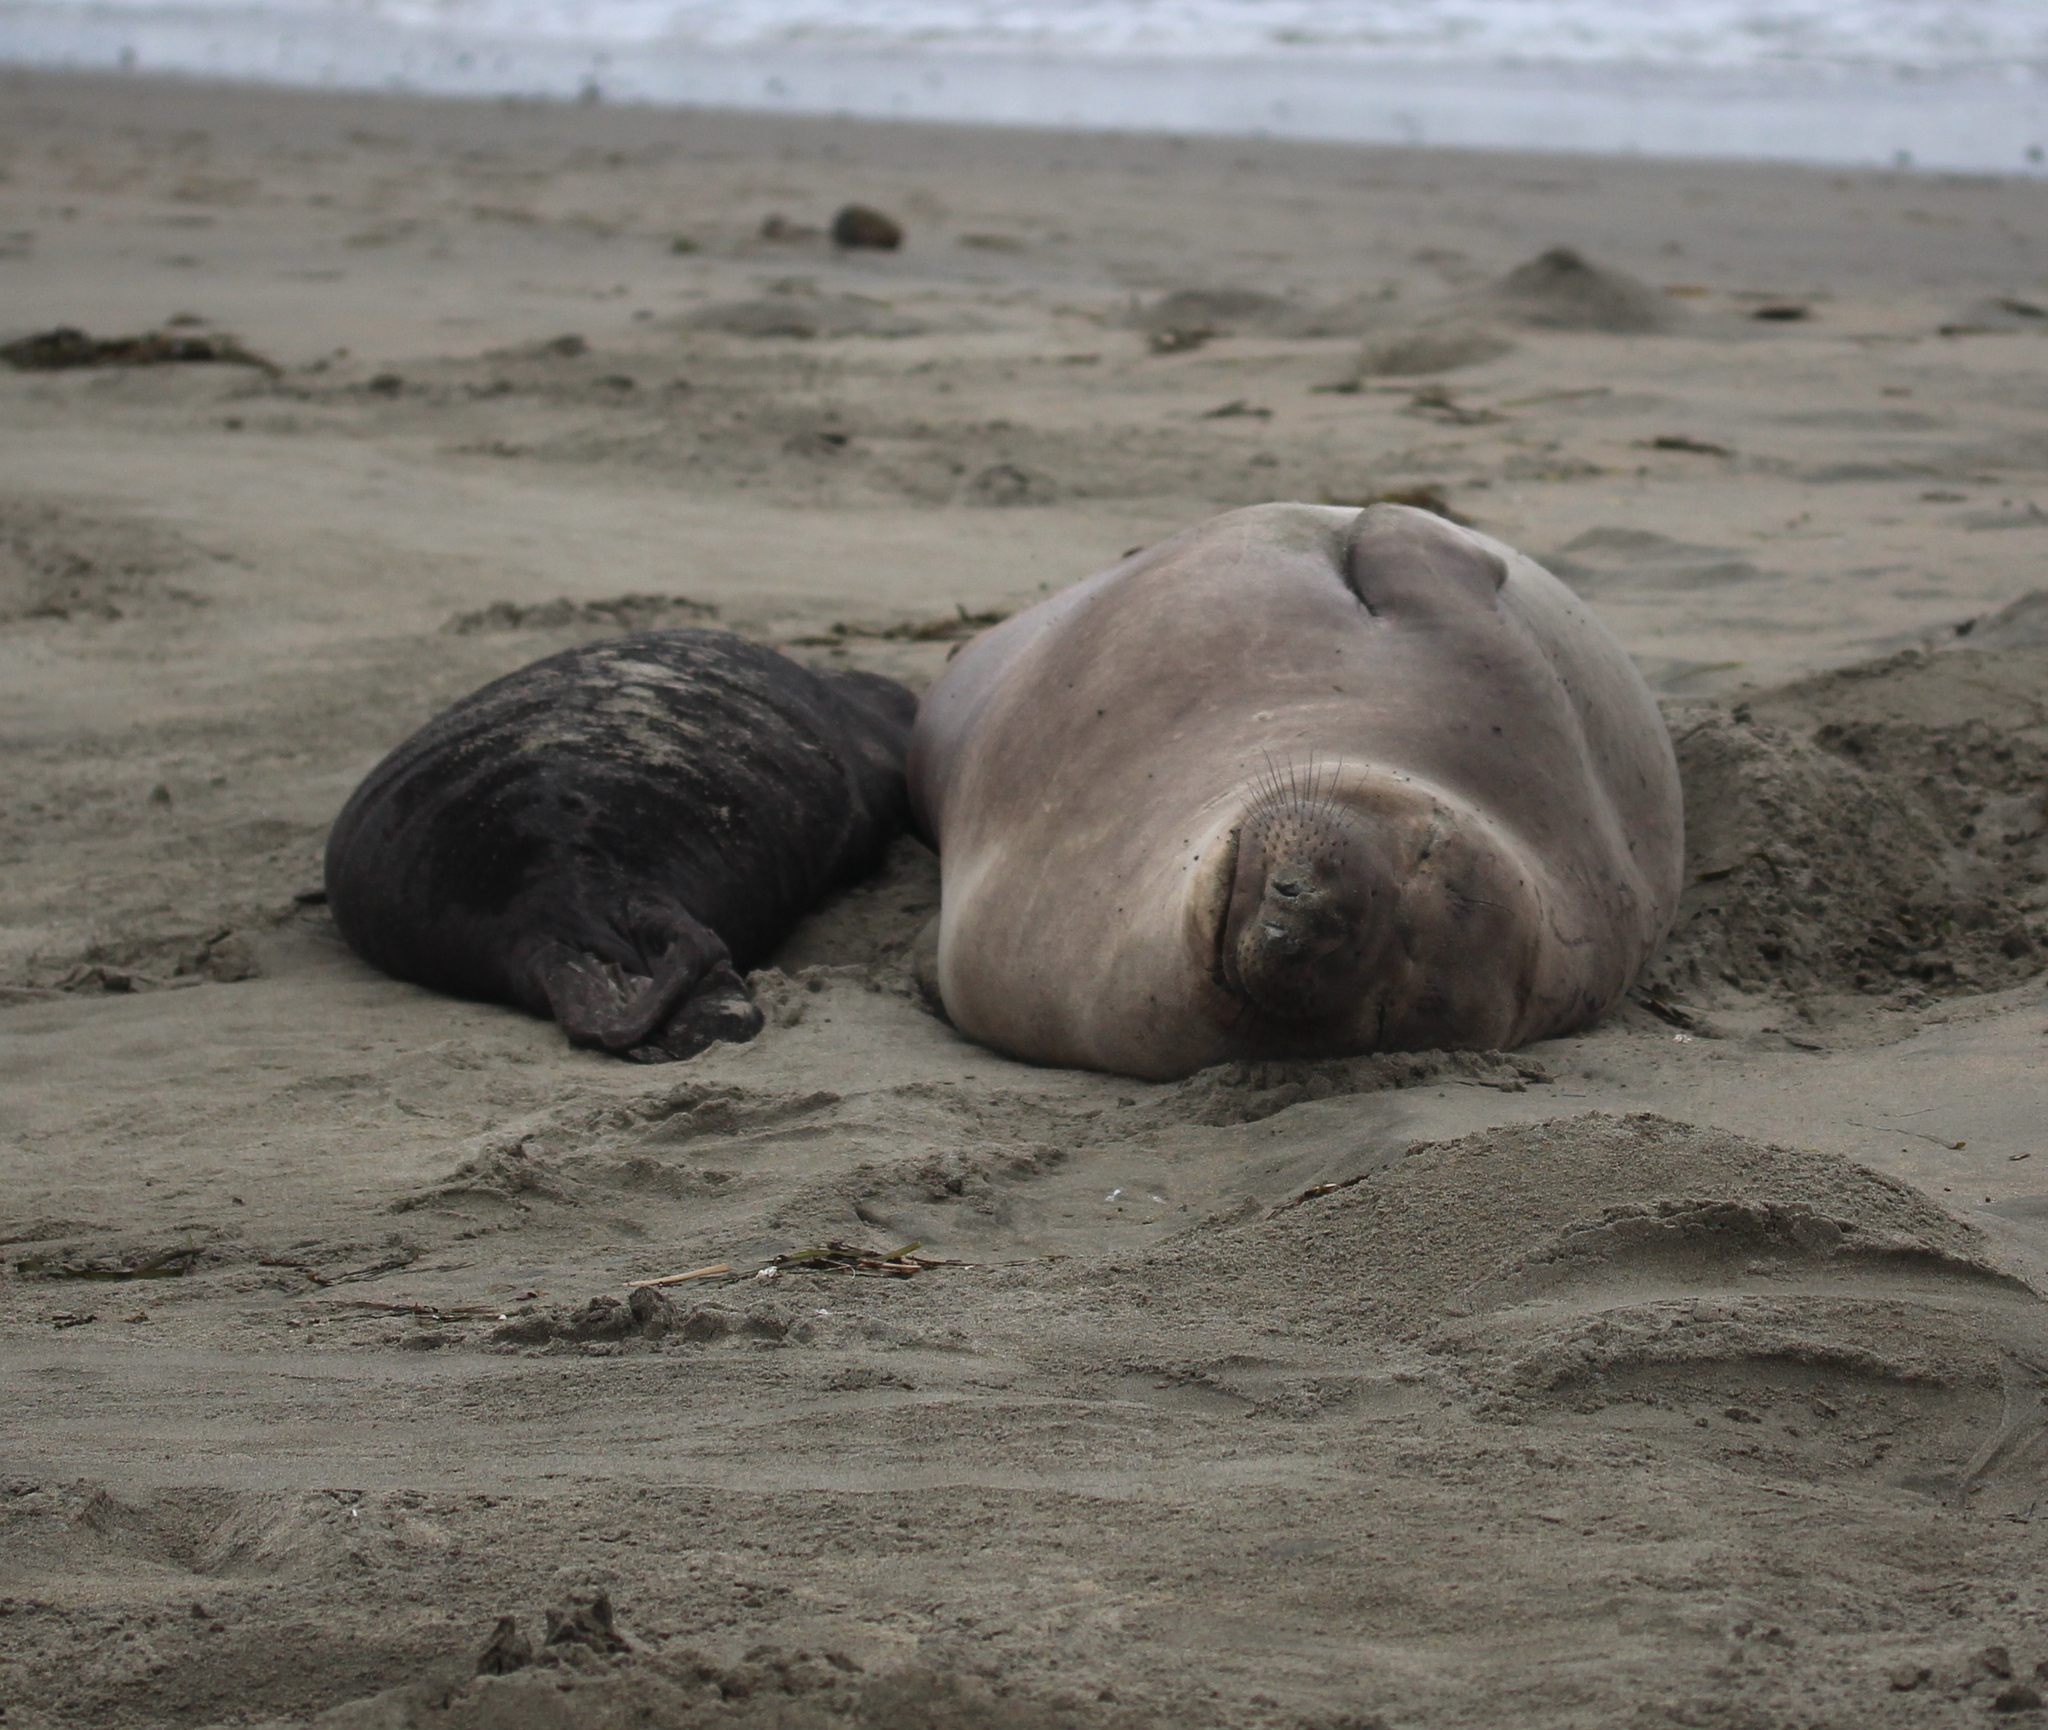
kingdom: Animalia
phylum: Chordata
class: Mammalia
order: Carnivora
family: Phocidae
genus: Mirounga
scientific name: Mirounga angustirostris
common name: Northern elephant seal
